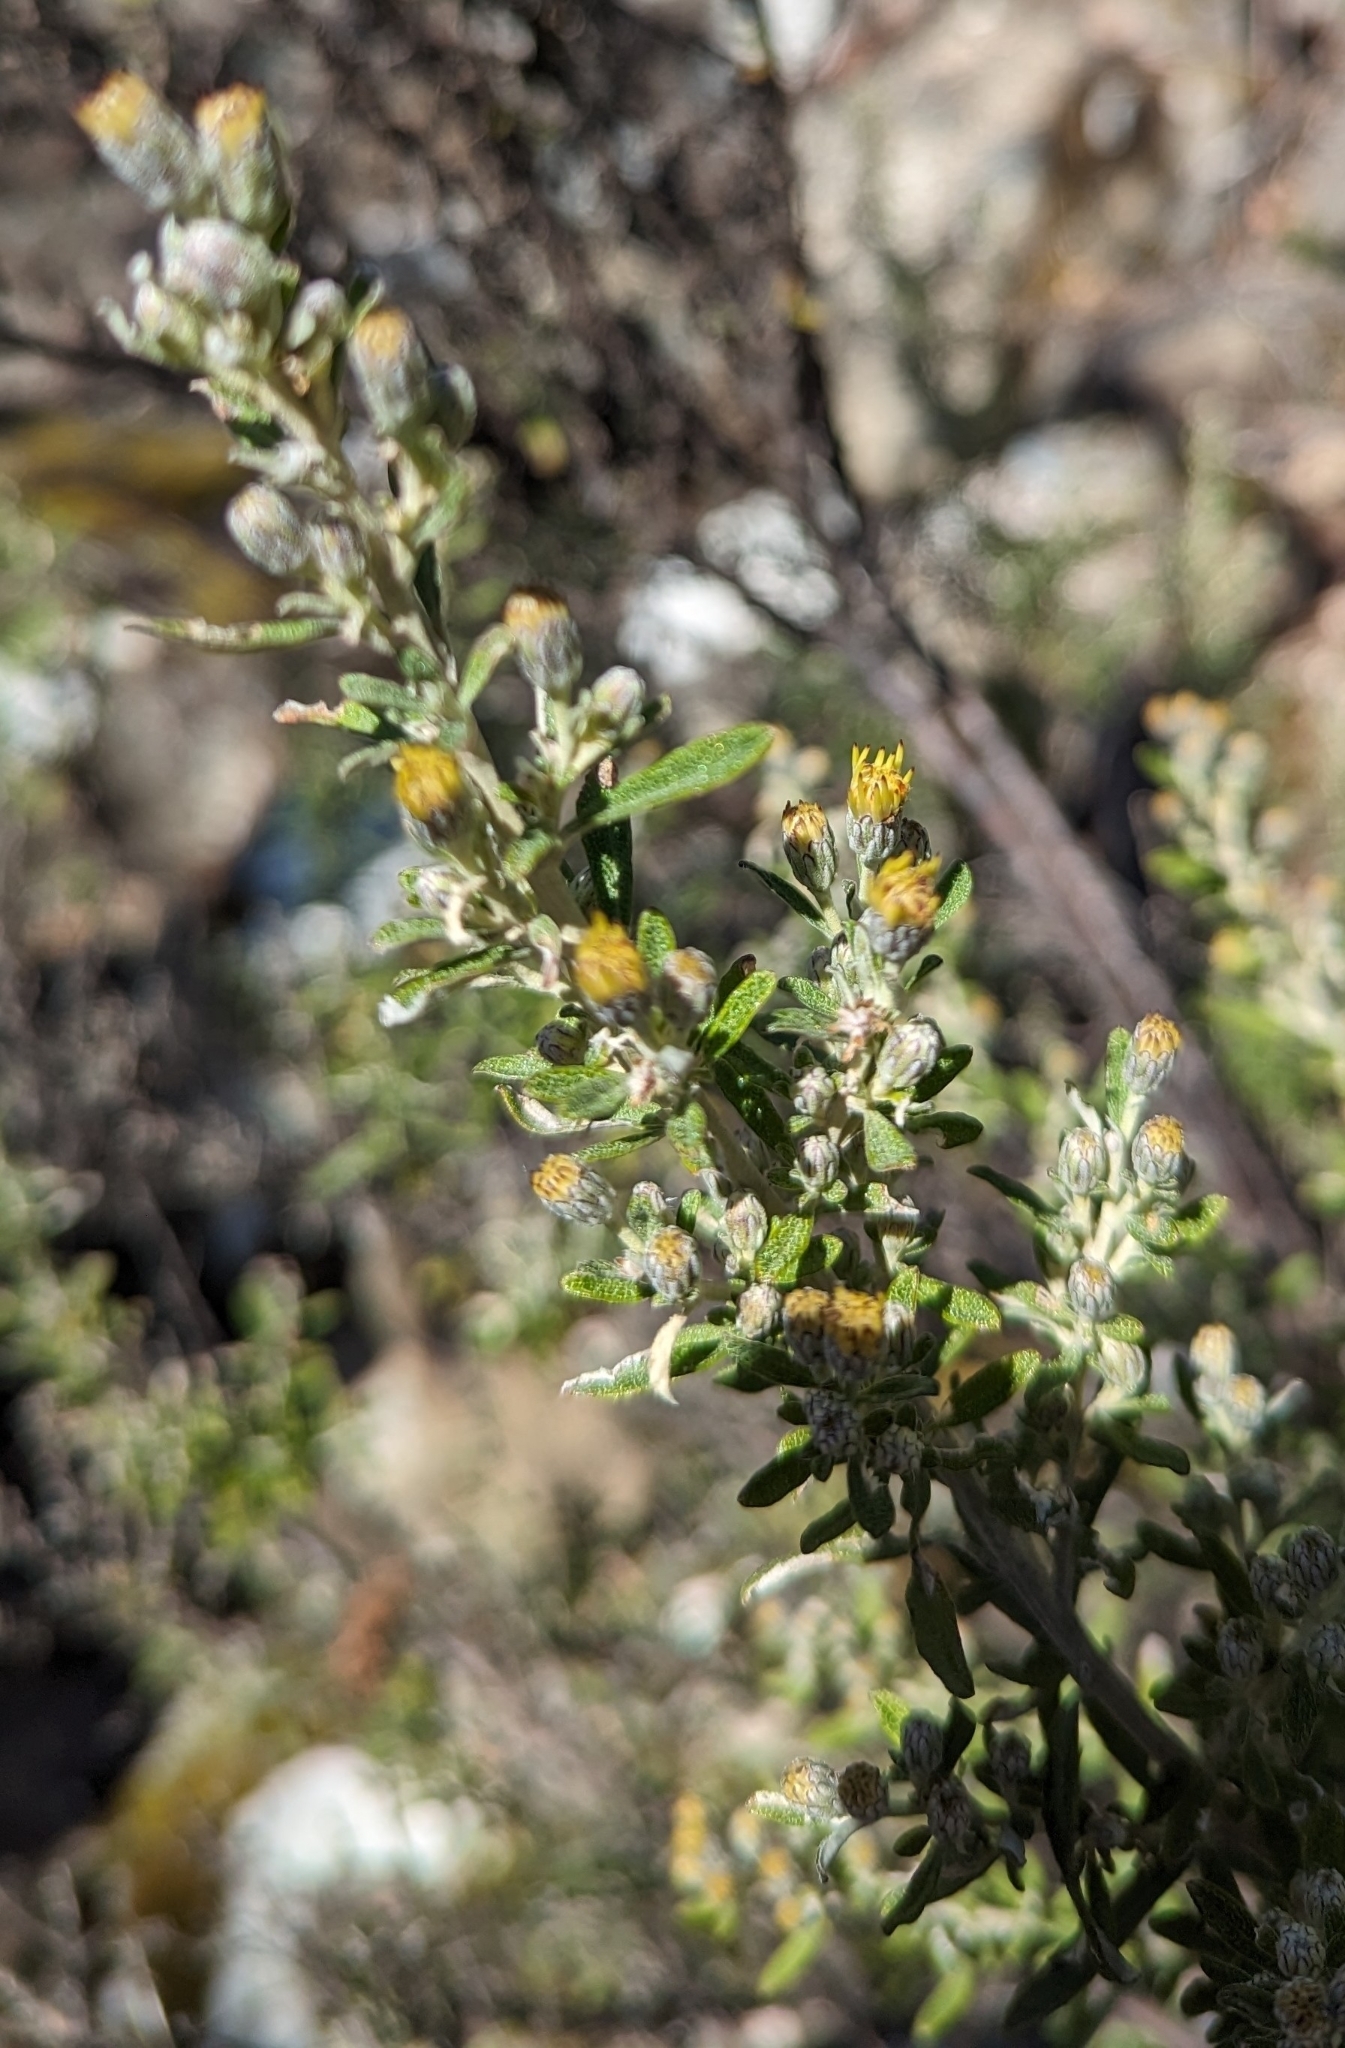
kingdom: Plantae
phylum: Tracheophyta
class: Magnoliopsida
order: Asterales
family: Asteraceae
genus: Olearia
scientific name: Olearia phlogopappa
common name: Alpine daisybush
